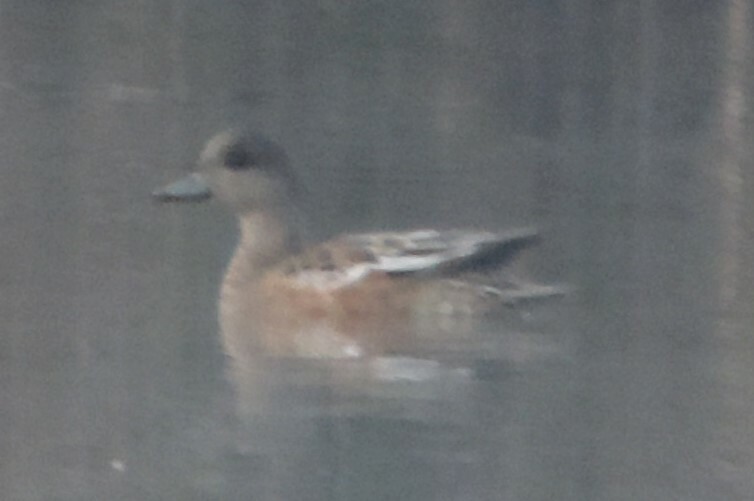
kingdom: Animalia
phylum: Chordata
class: Aves
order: Anseriformes
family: Anatidae
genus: Mareca
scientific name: Mareca americana
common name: American wigeon
